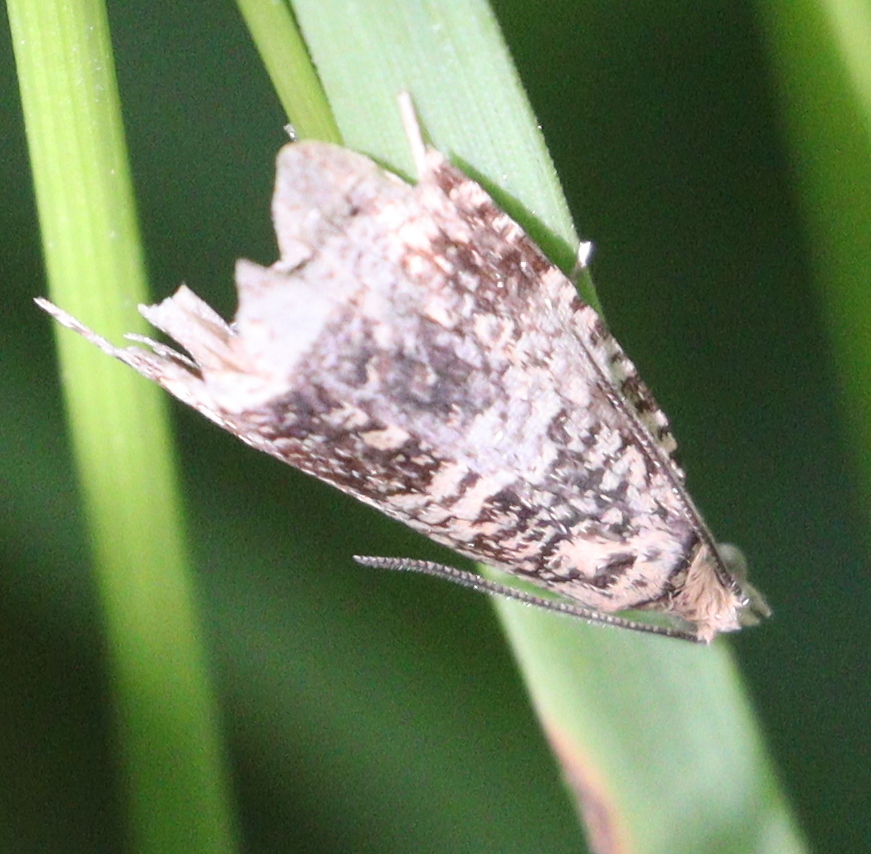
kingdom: Animalia
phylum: Arthropoda
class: Insecta
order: Lepidoptera
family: Tortricidae
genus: Syricoris
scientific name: Syricoris lacunana
